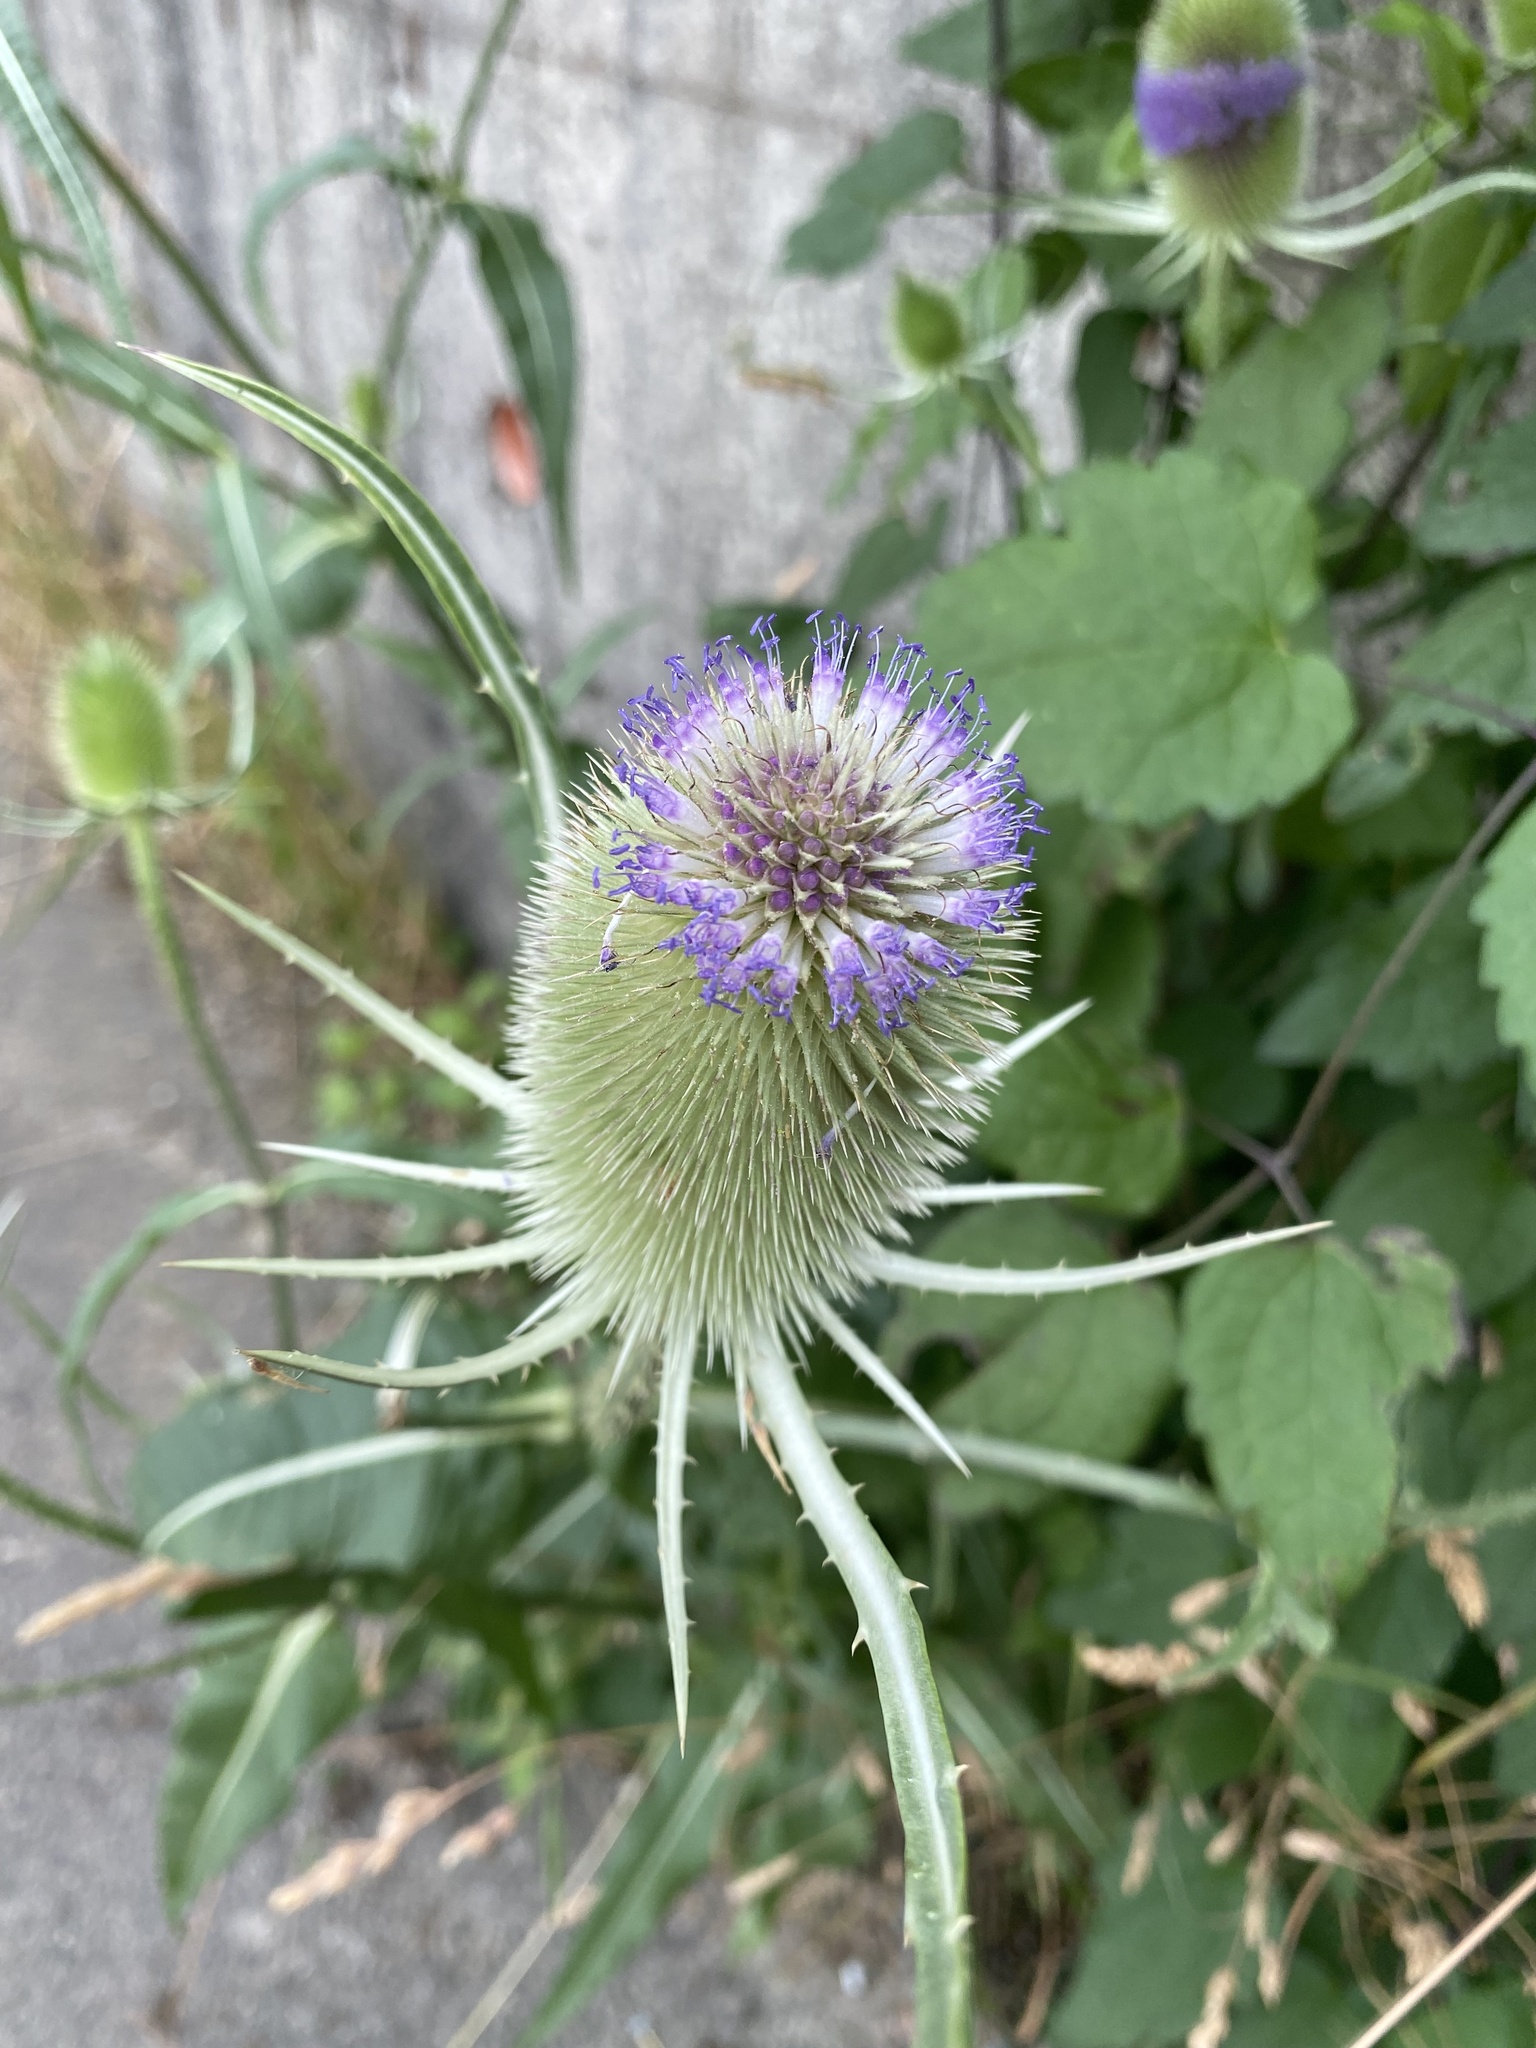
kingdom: Plantae
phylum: Tracheophyta
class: Magnoliopsida
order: Dipsacales
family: Caprifoliaceae
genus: Dipsacus
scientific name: Dipsacus fullonum
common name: Teasel
